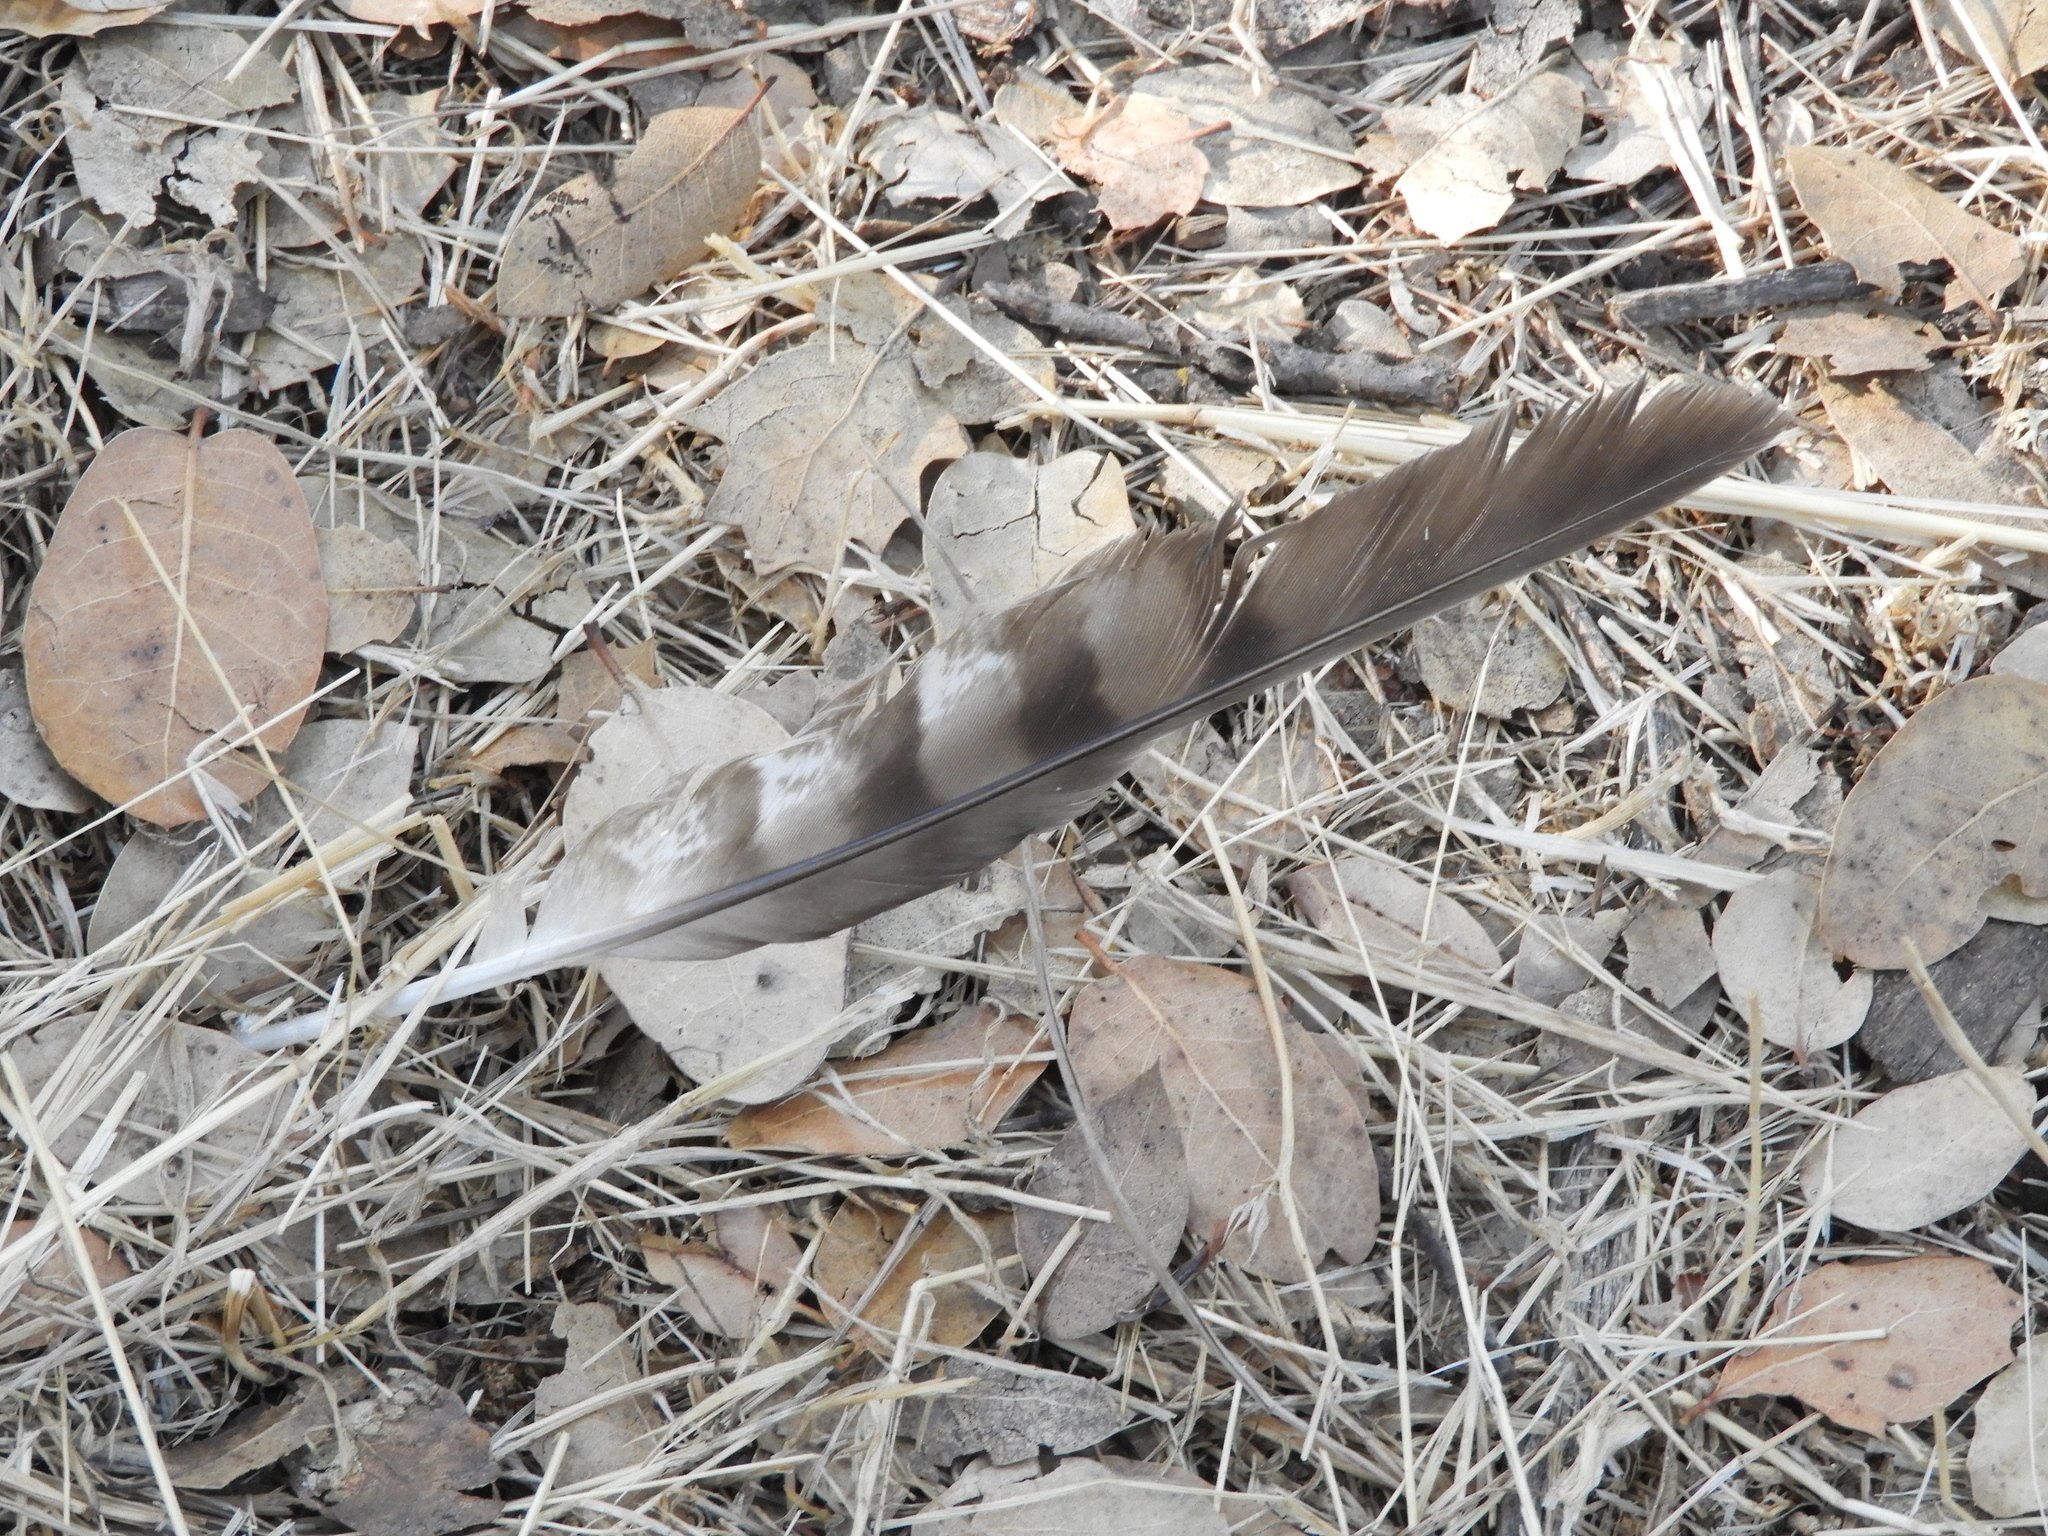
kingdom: Animalia
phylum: Chordata
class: Aves
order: Accipitriformes
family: Accipitridae
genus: Accipiter
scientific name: Accipiter cooperii
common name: Cooper's hawk
